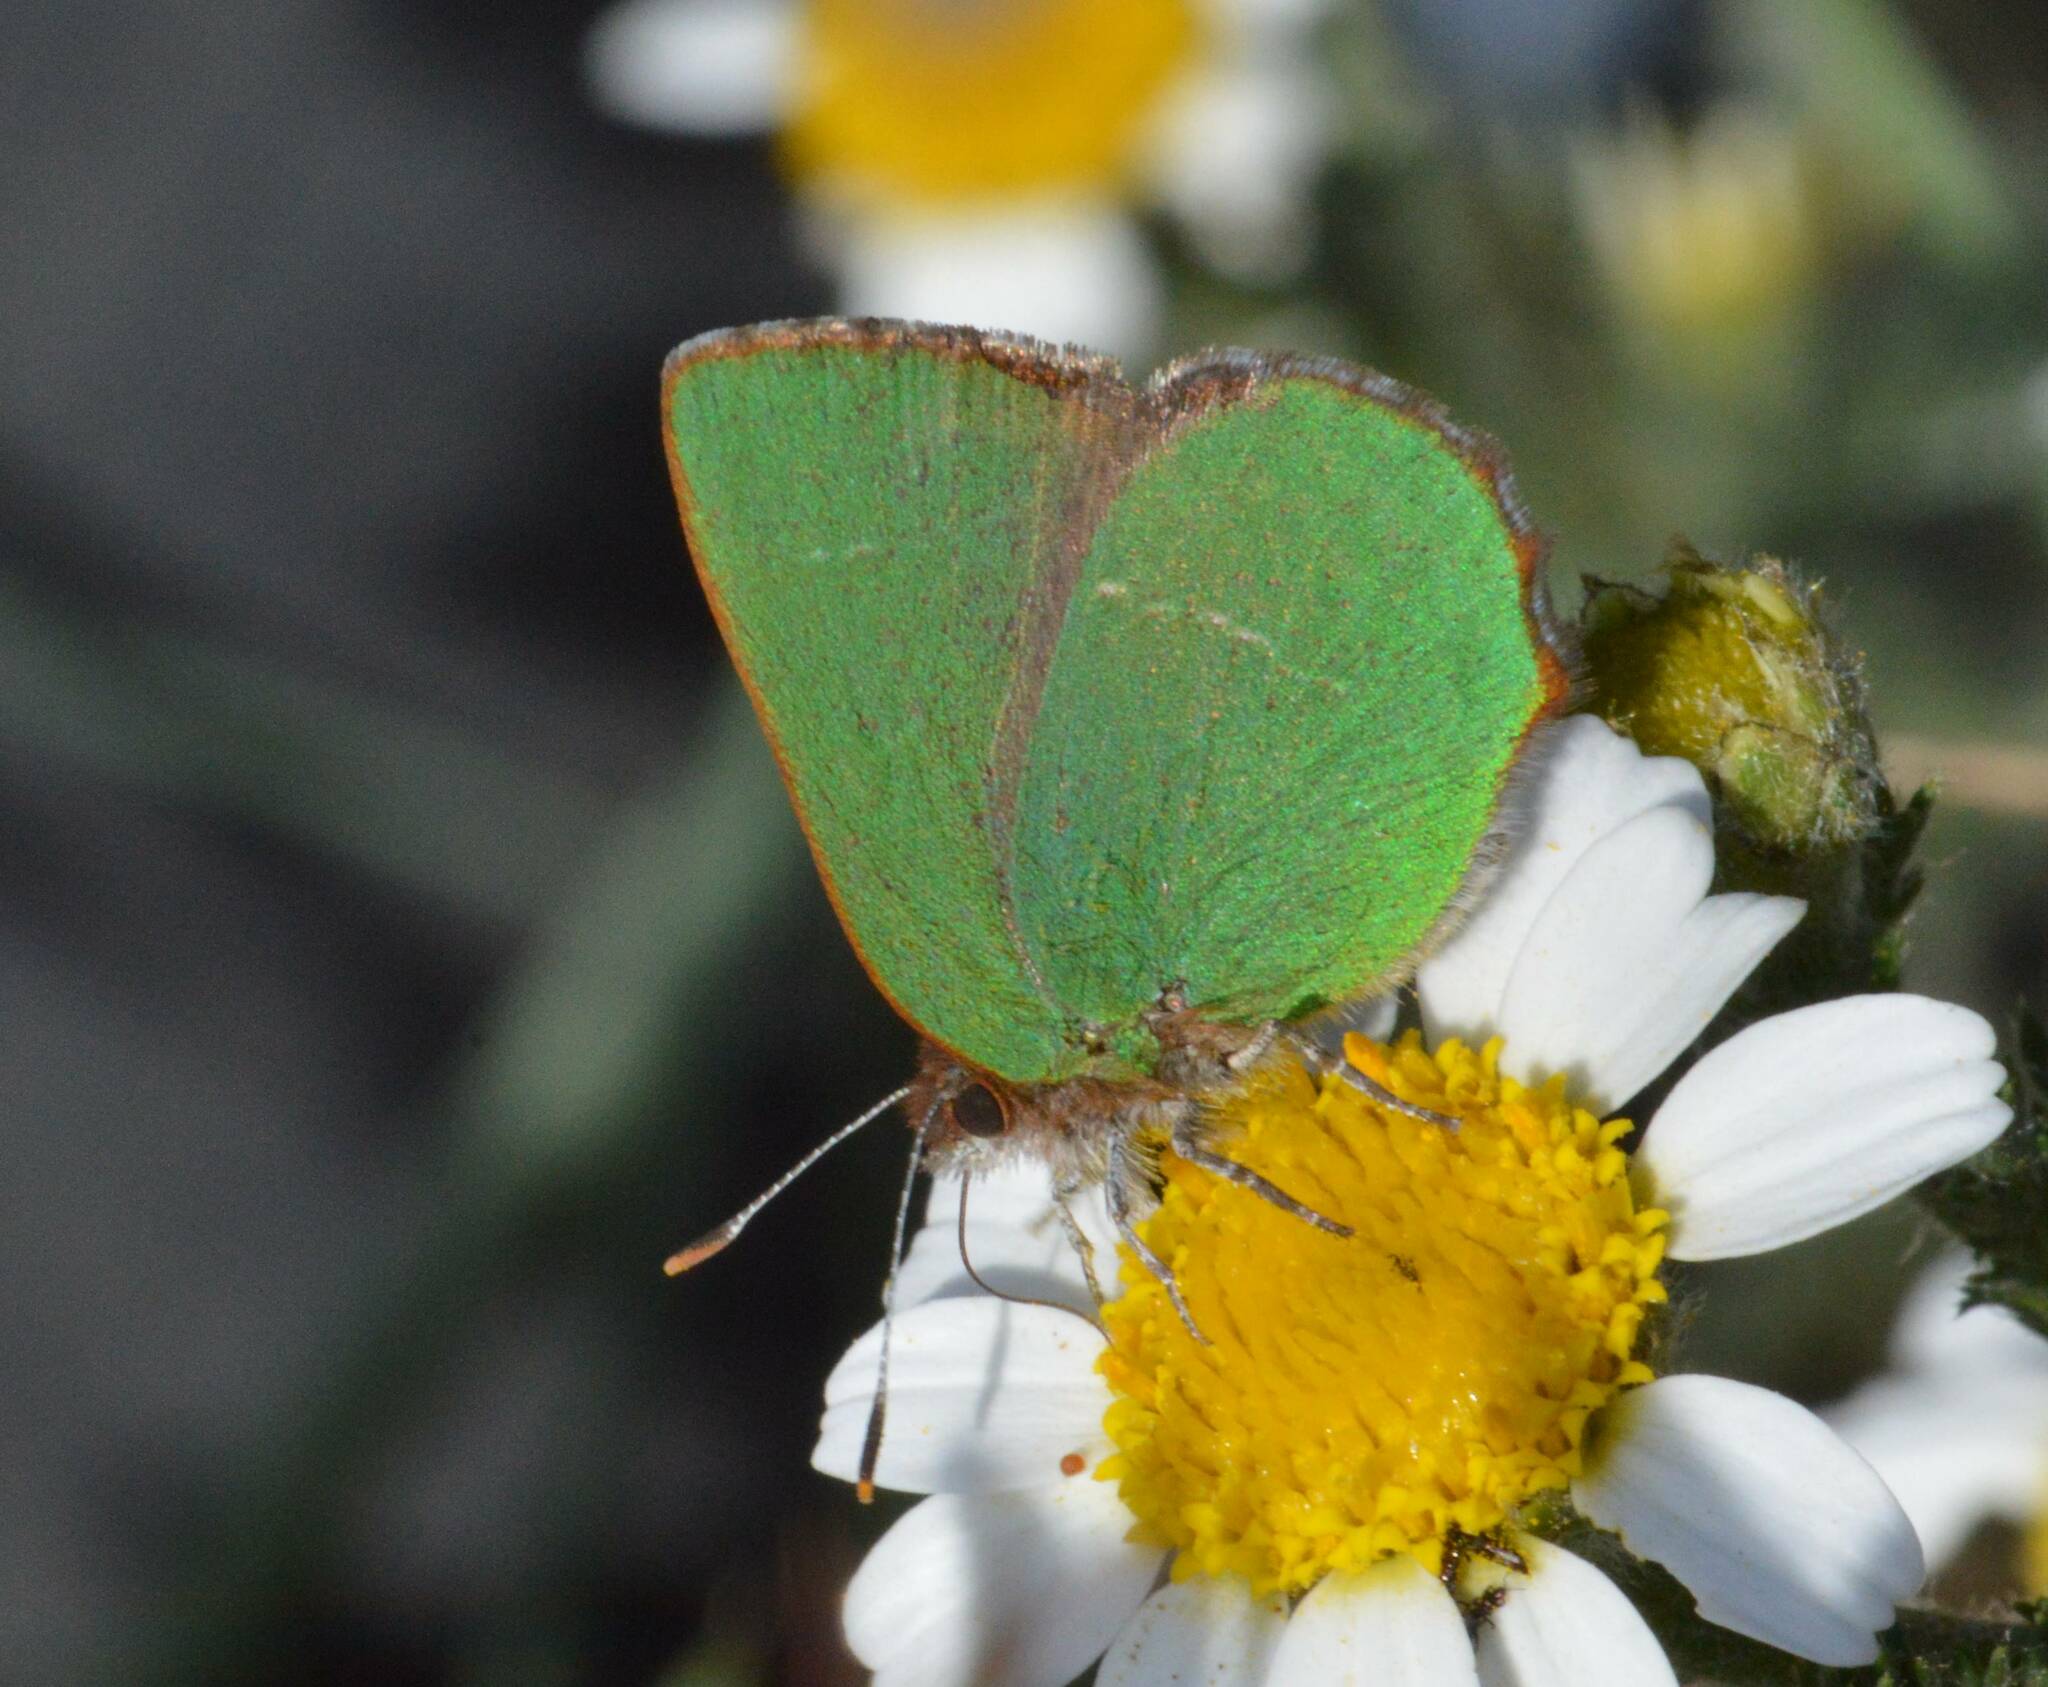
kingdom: Animalia
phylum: Arthropoda
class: Insecta
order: Lepidoptera
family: Lycaenidae
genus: Callophrys
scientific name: Callophrys avis
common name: Chapman's green hairstreak
